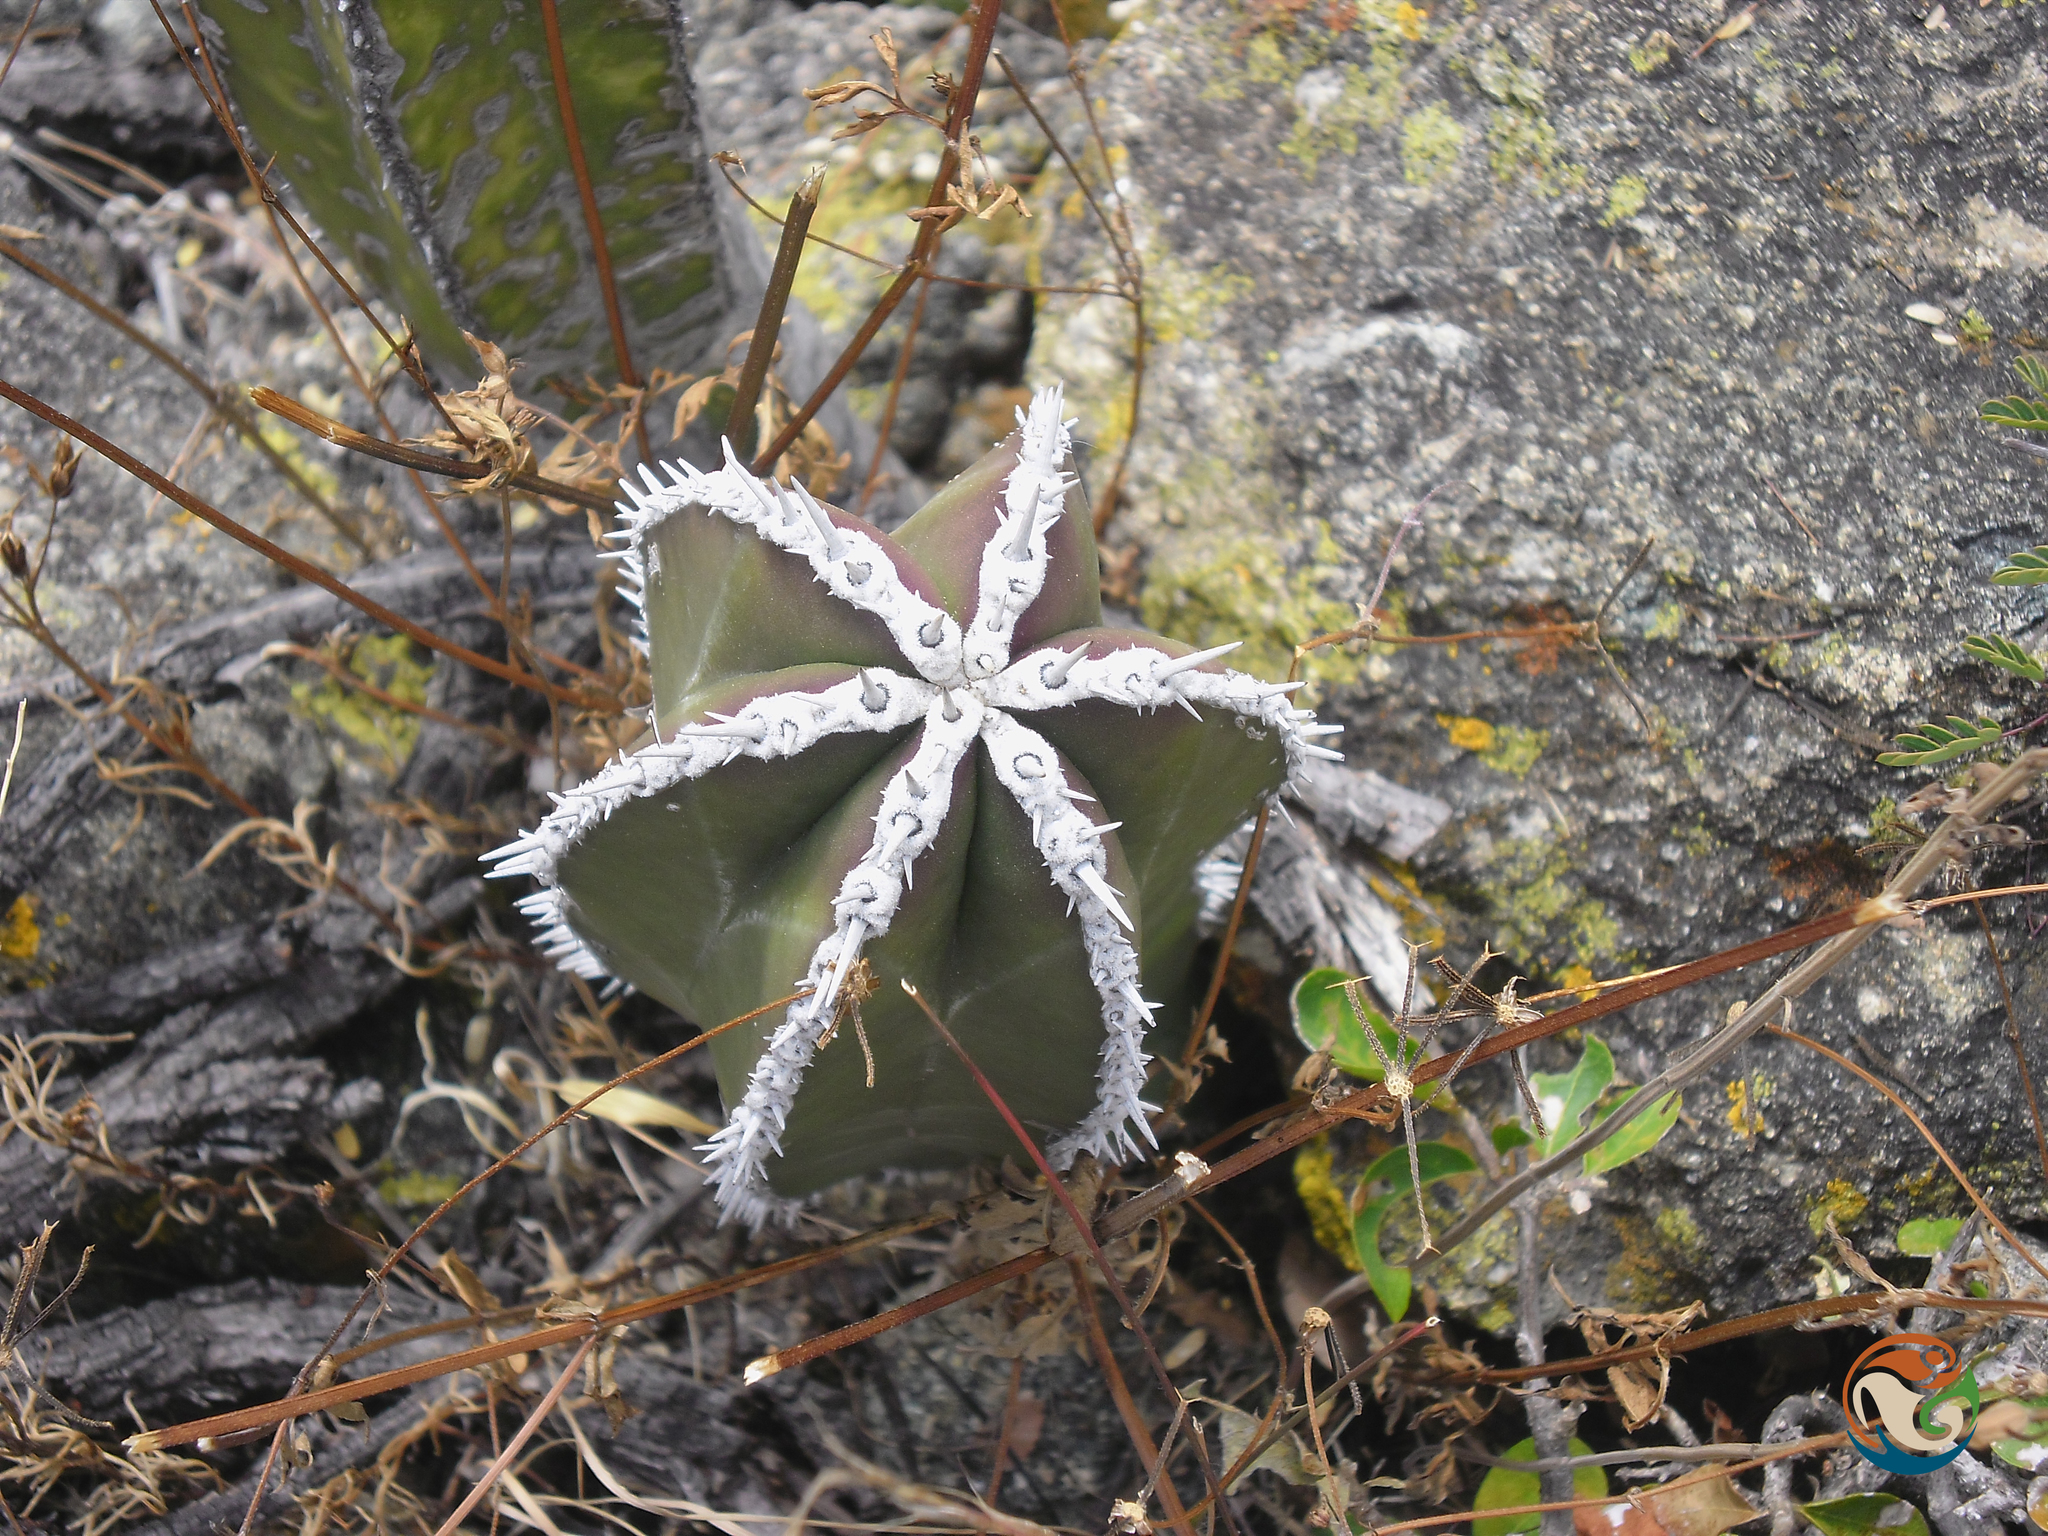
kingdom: Plantae
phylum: Tracheophyta
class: Magnoliopsida
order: Caryophyllales
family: Cactaceae
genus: Marginatocereus
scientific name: Marginatocereus marginatus
